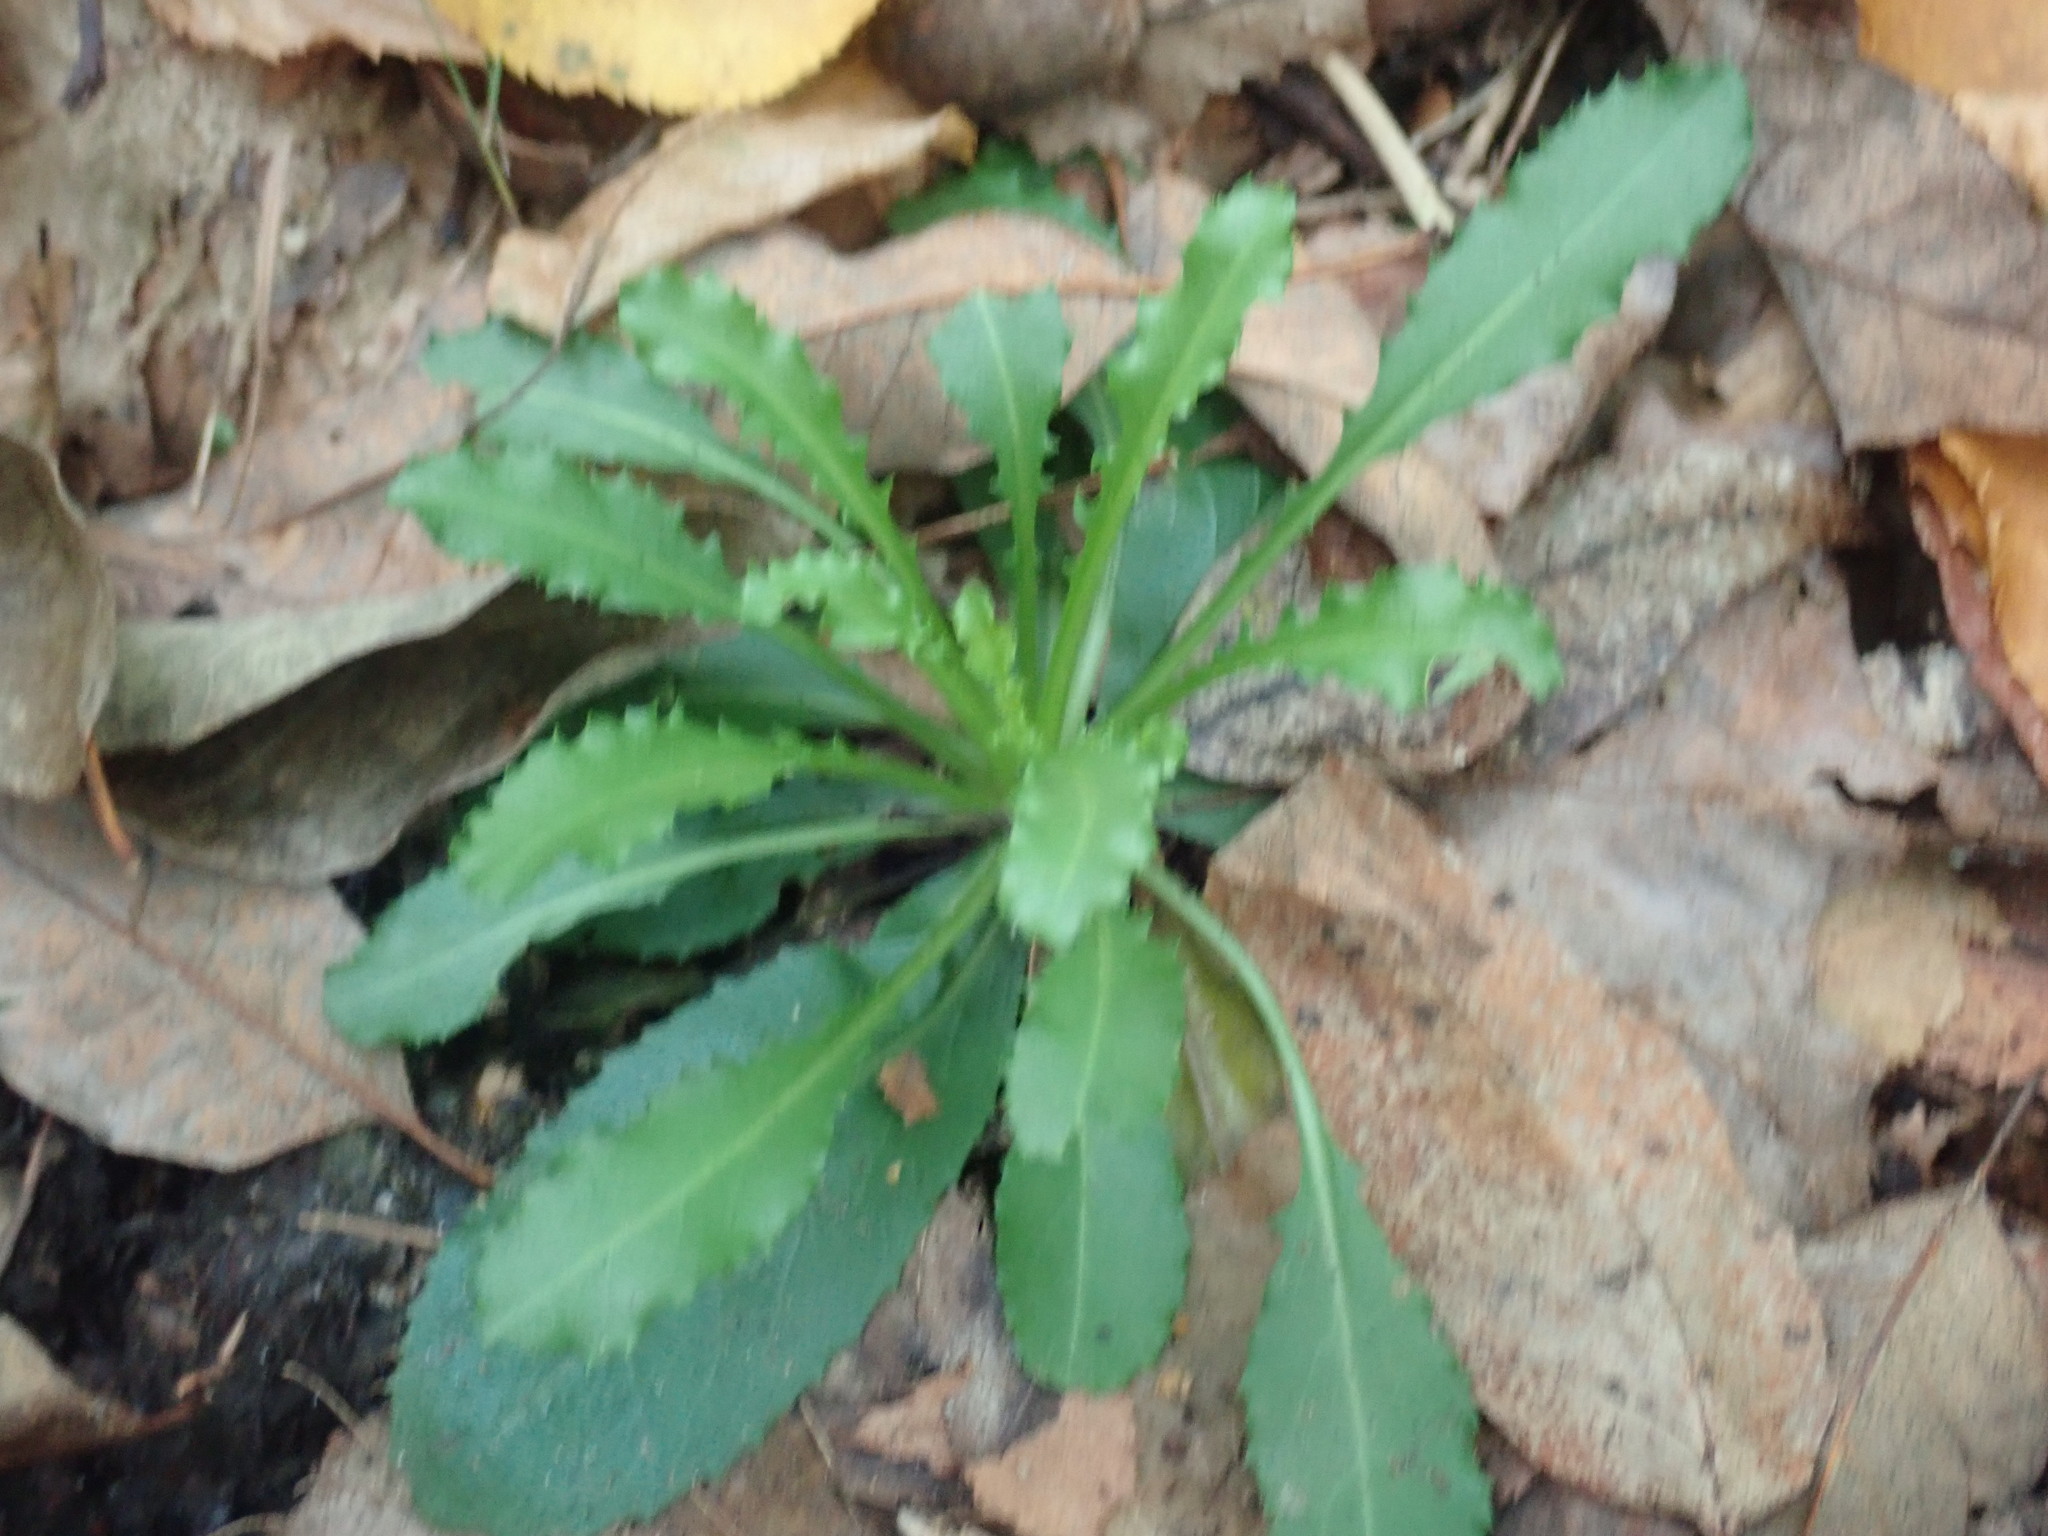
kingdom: Plantae
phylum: Tracheophyta
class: Magnoliopsida
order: Brassicales
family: Brassicaceae
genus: Borodinia
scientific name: Borodinia canadensis
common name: Sicklepod
